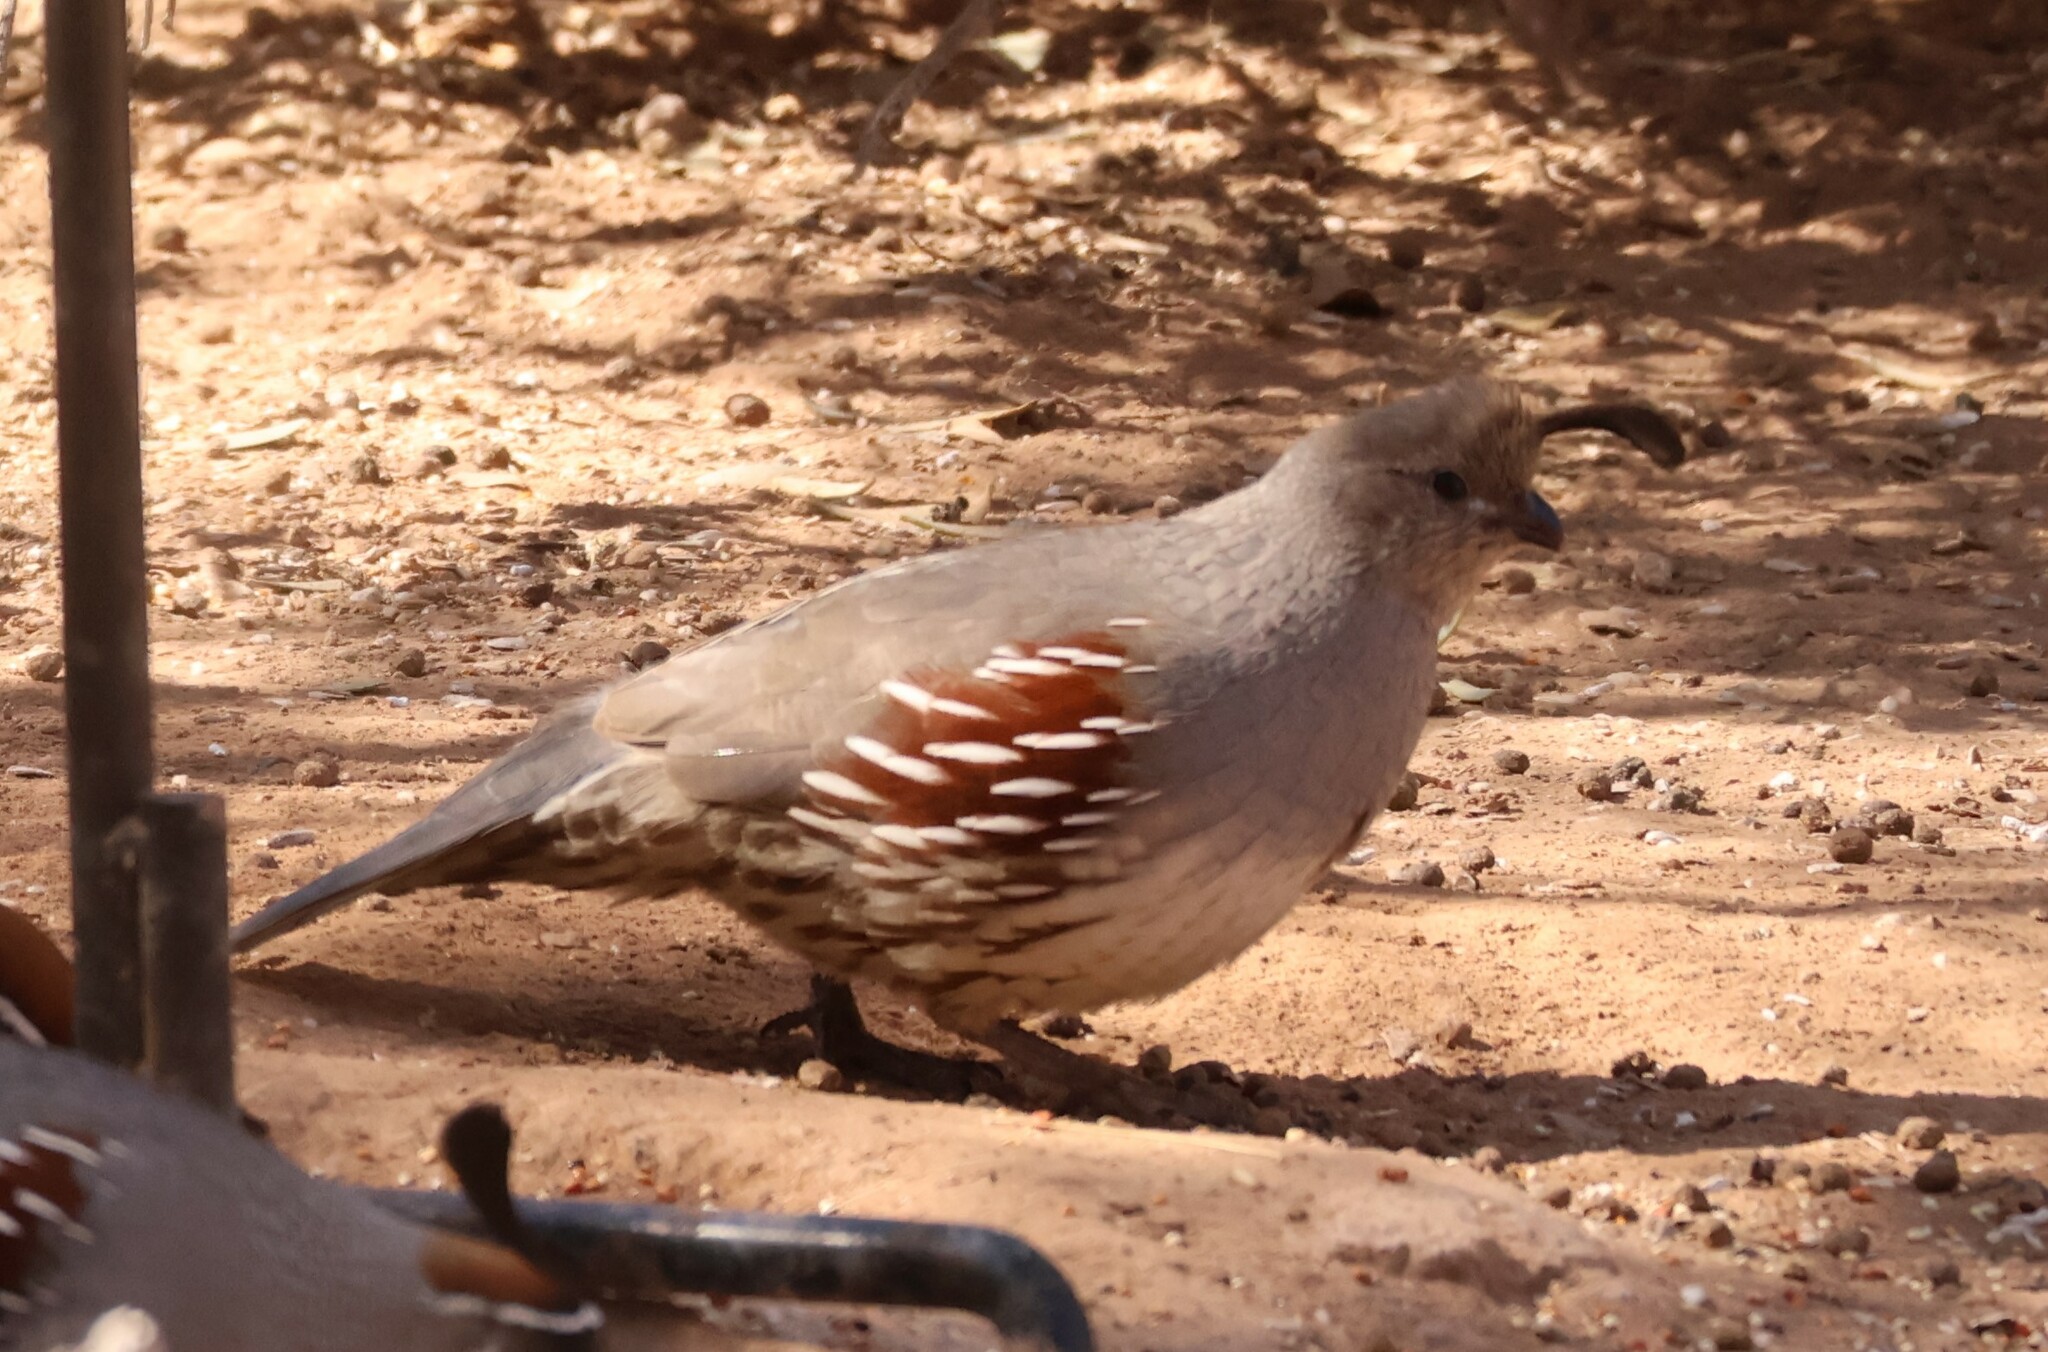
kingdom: Animalia
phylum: Chordata
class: Aves
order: Galliformes
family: Odontophoridae
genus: Callipepla
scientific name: Callipepla gambelii
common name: Gambel's quail
